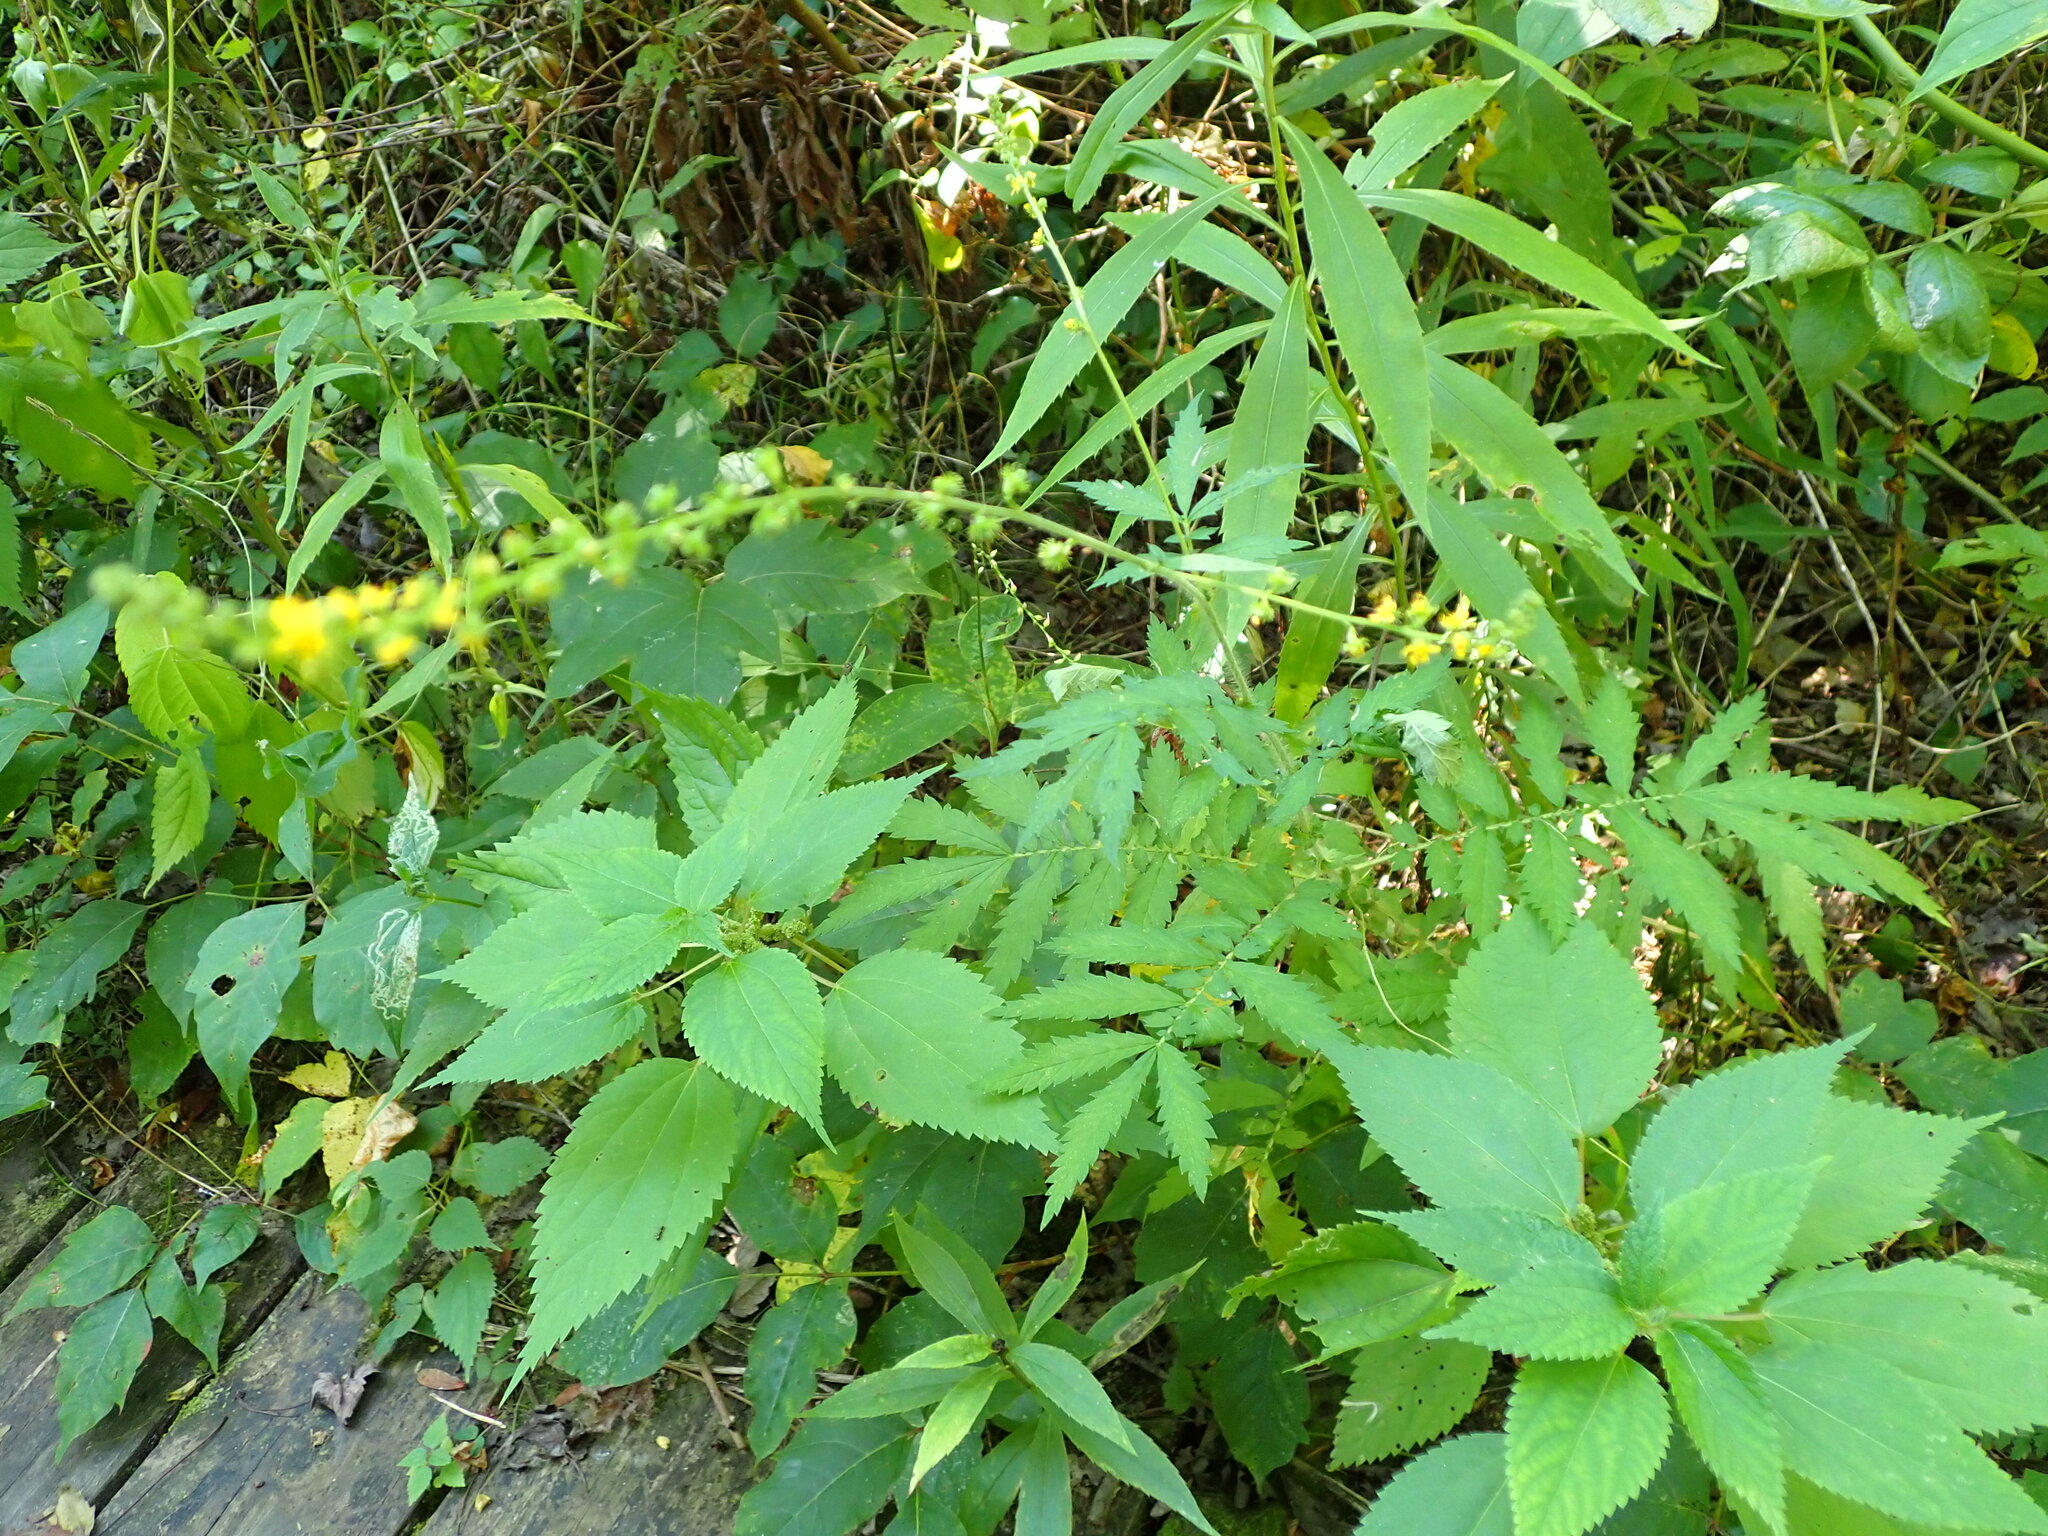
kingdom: Plantae
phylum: Tracheophyta
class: Magnoliopsida
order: Rosales
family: Rosaceae
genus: Agrimonia
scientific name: Agrimonia parviflora
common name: Harvest-lice
